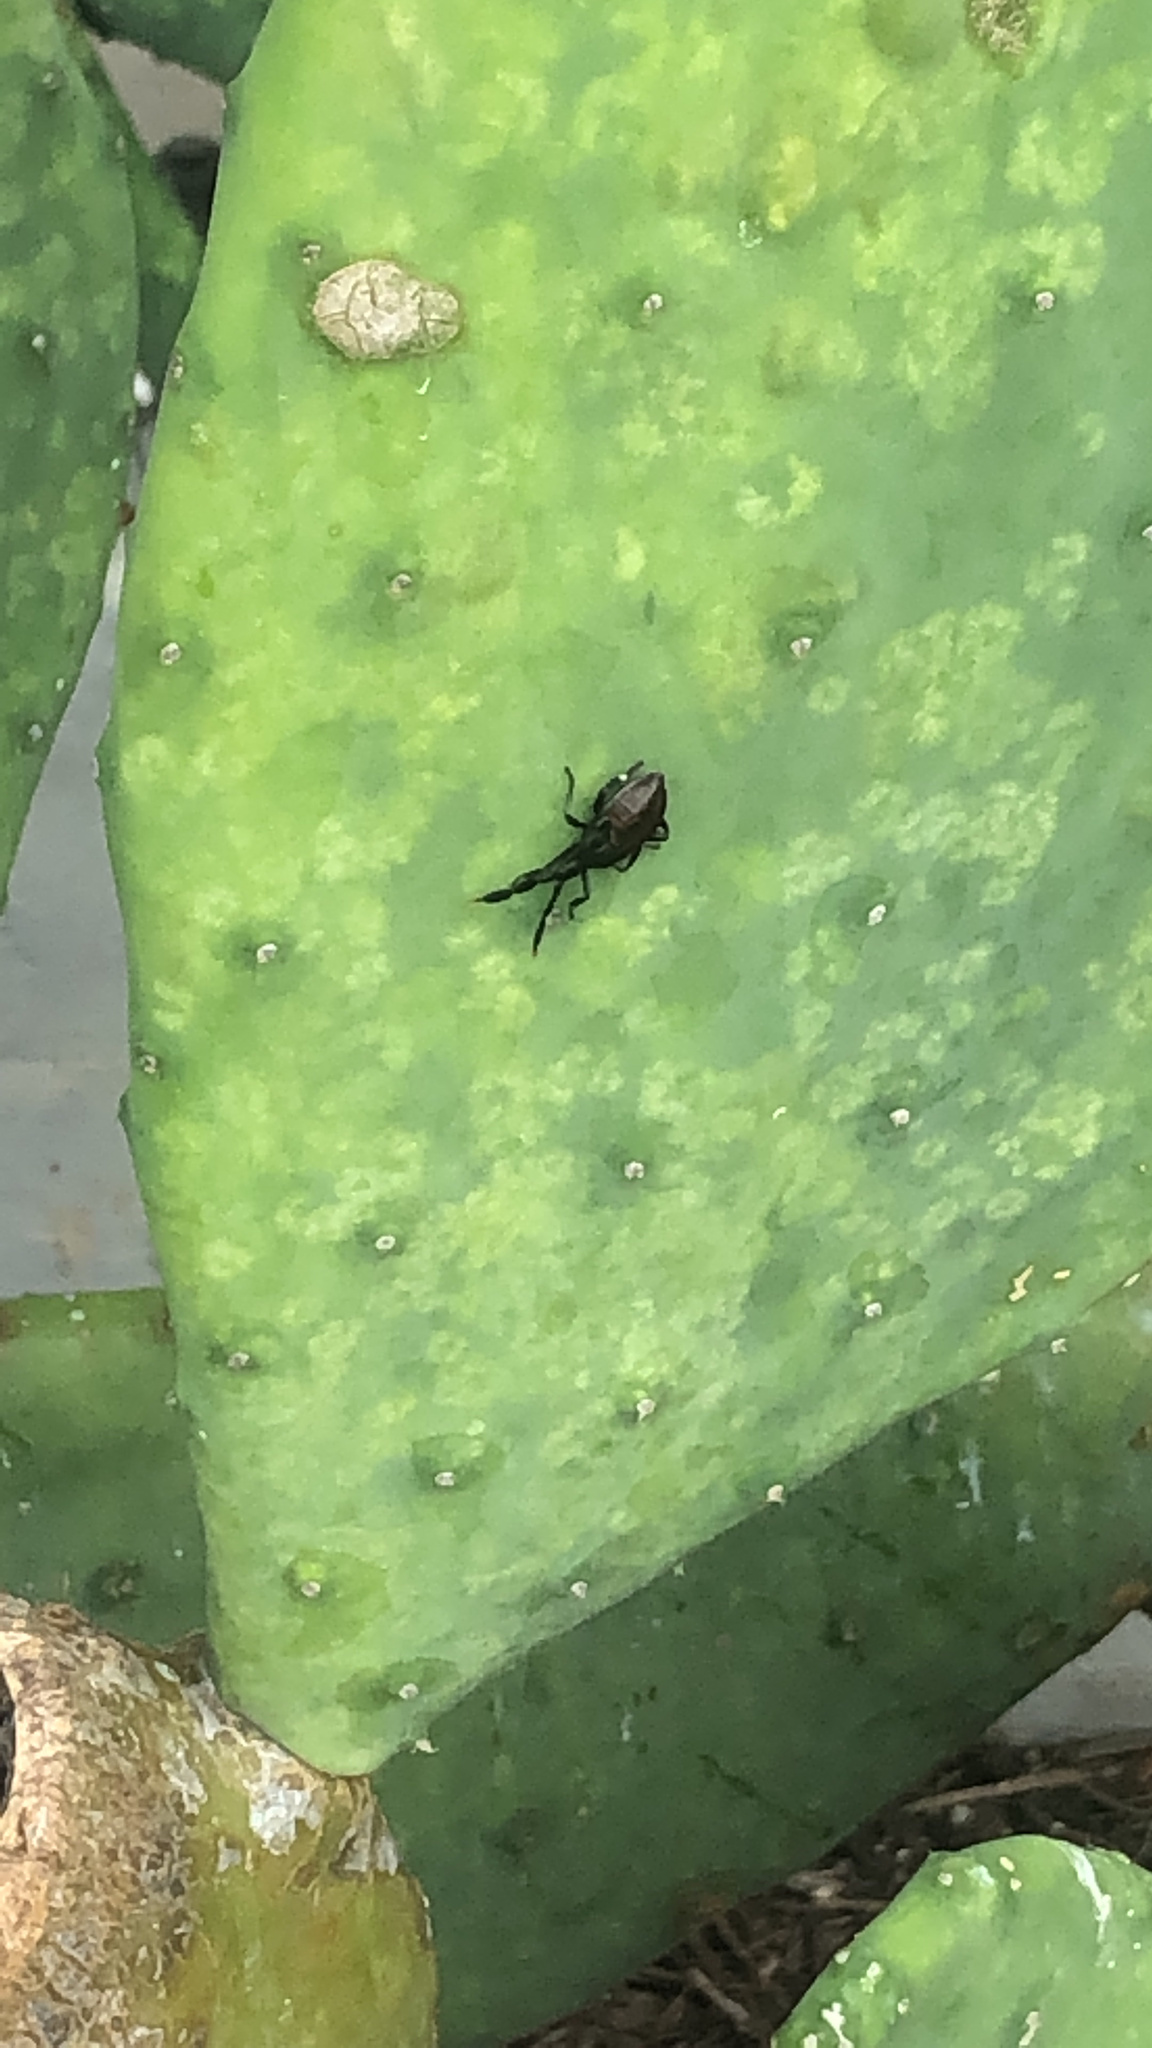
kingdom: Animalia
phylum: Arthropoda
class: Insecta
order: Hemiptera
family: Coreidae
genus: Chelinidea
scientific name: Chelinidea vittiger
